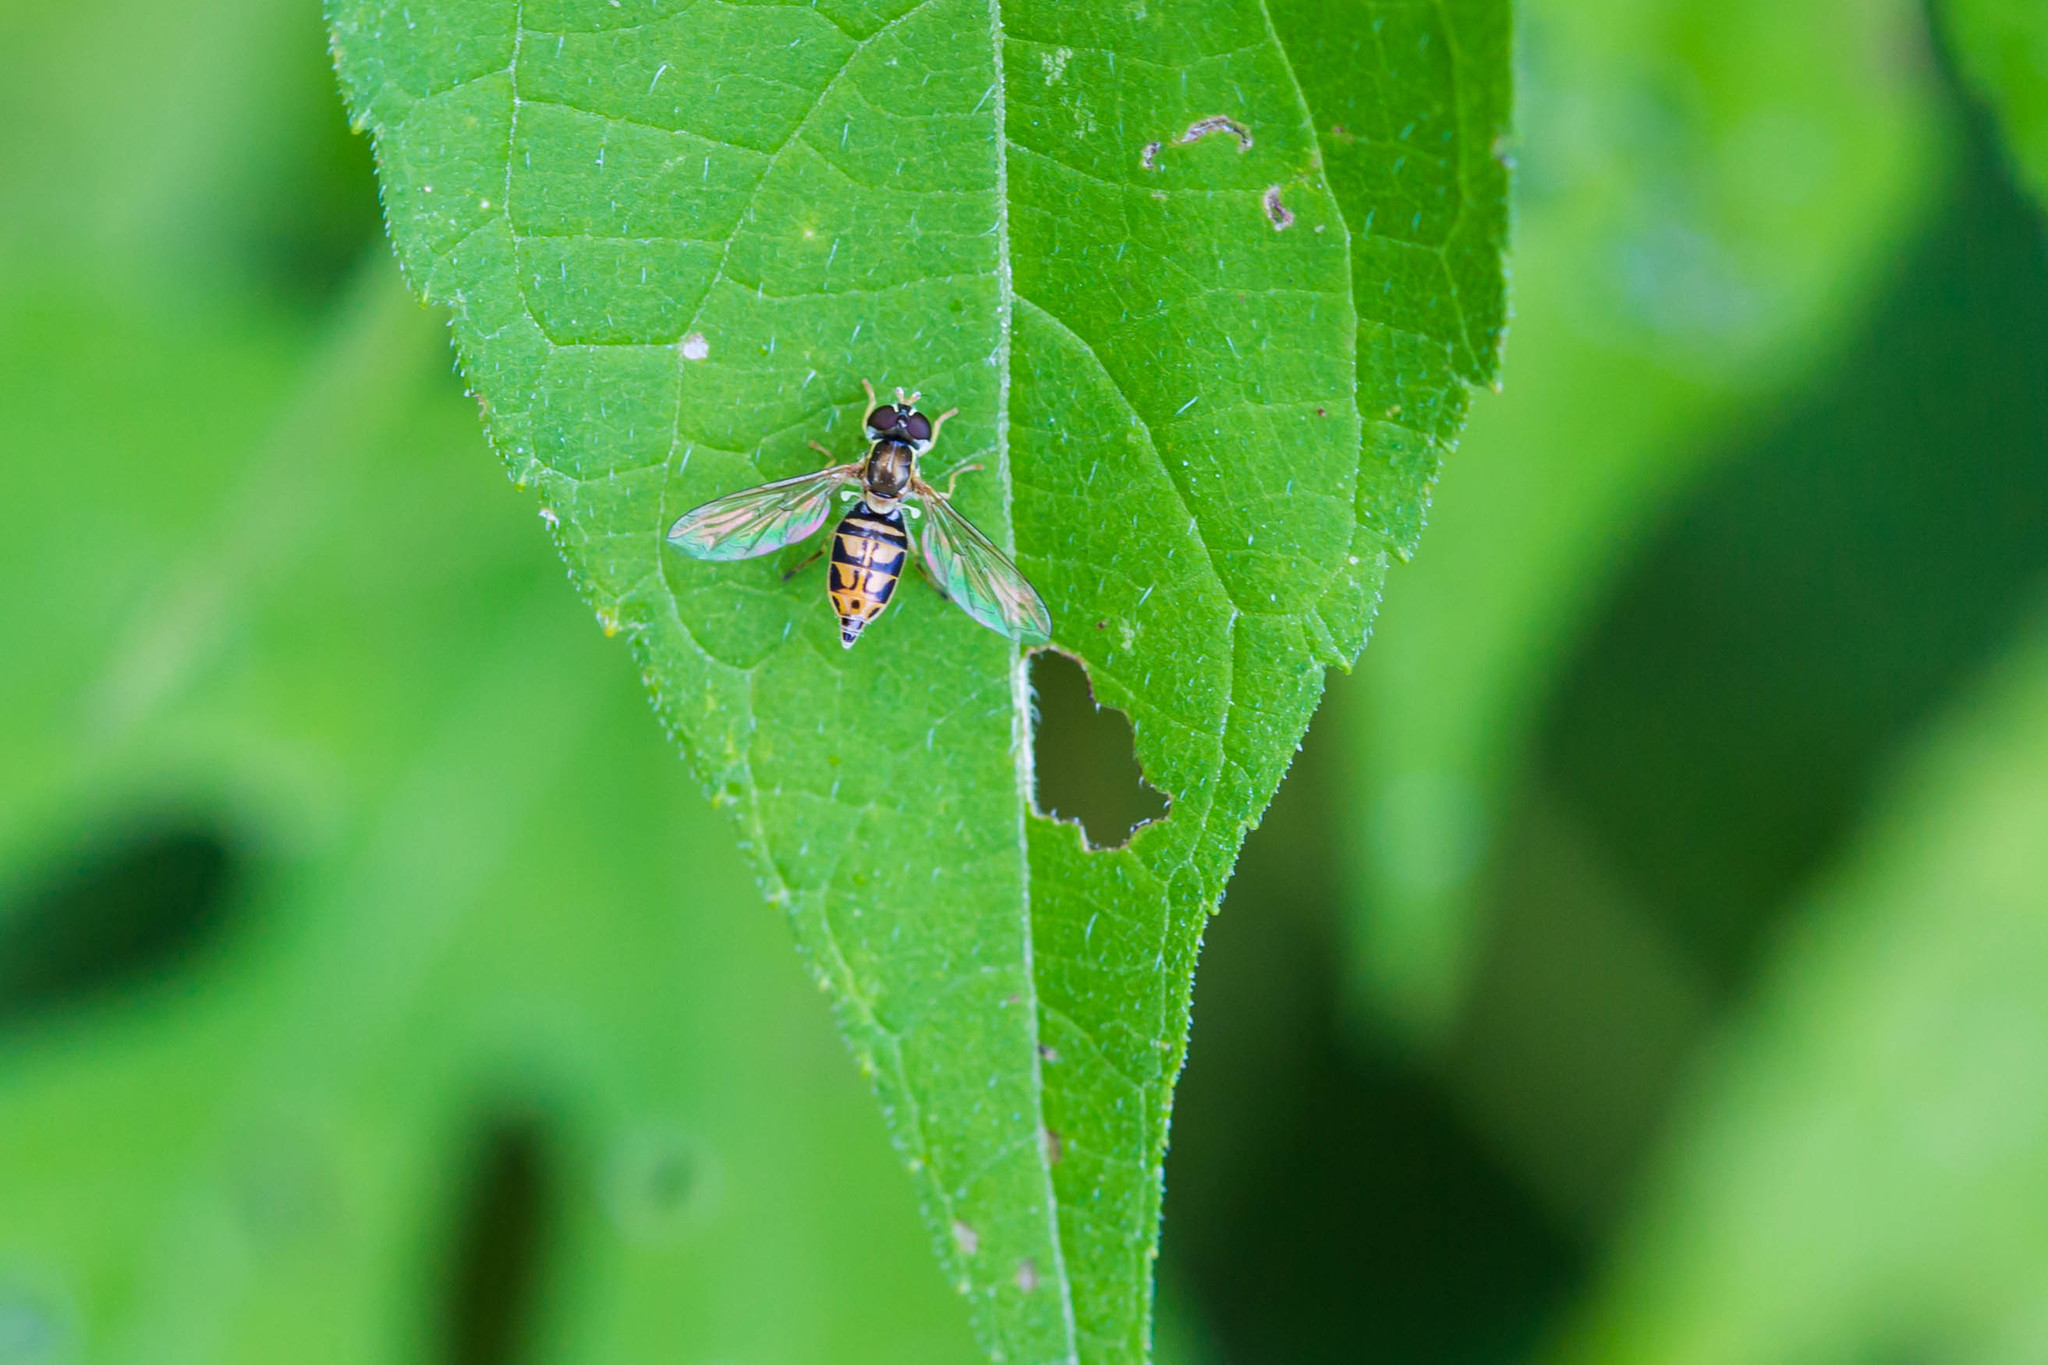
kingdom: Animalia
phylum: Arthropoda
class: Insecta
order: Diptera
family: Syrphidae
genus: Toxomerus
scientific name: Toxomerus marginatus
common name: Syrphid fly
